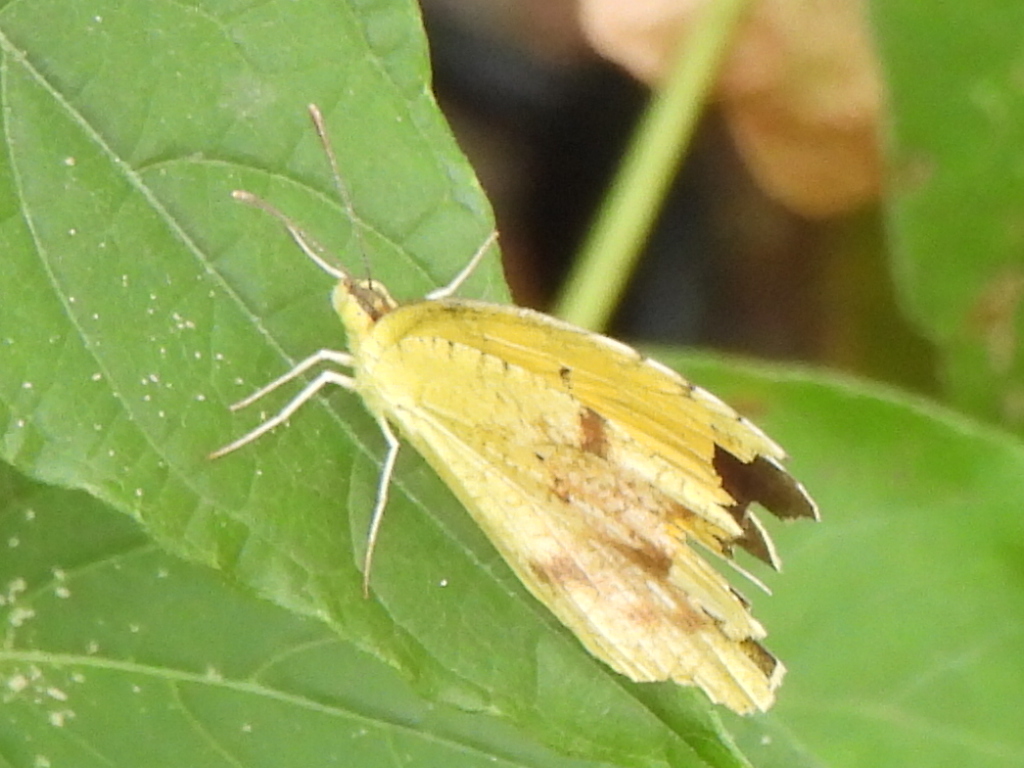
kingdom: Animalia
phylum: Arthropoda
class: Insecta
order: Lepidoptera
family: Pieridae
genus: Abaeis
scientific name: Abaeis nicippe
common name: Sleepy orange
